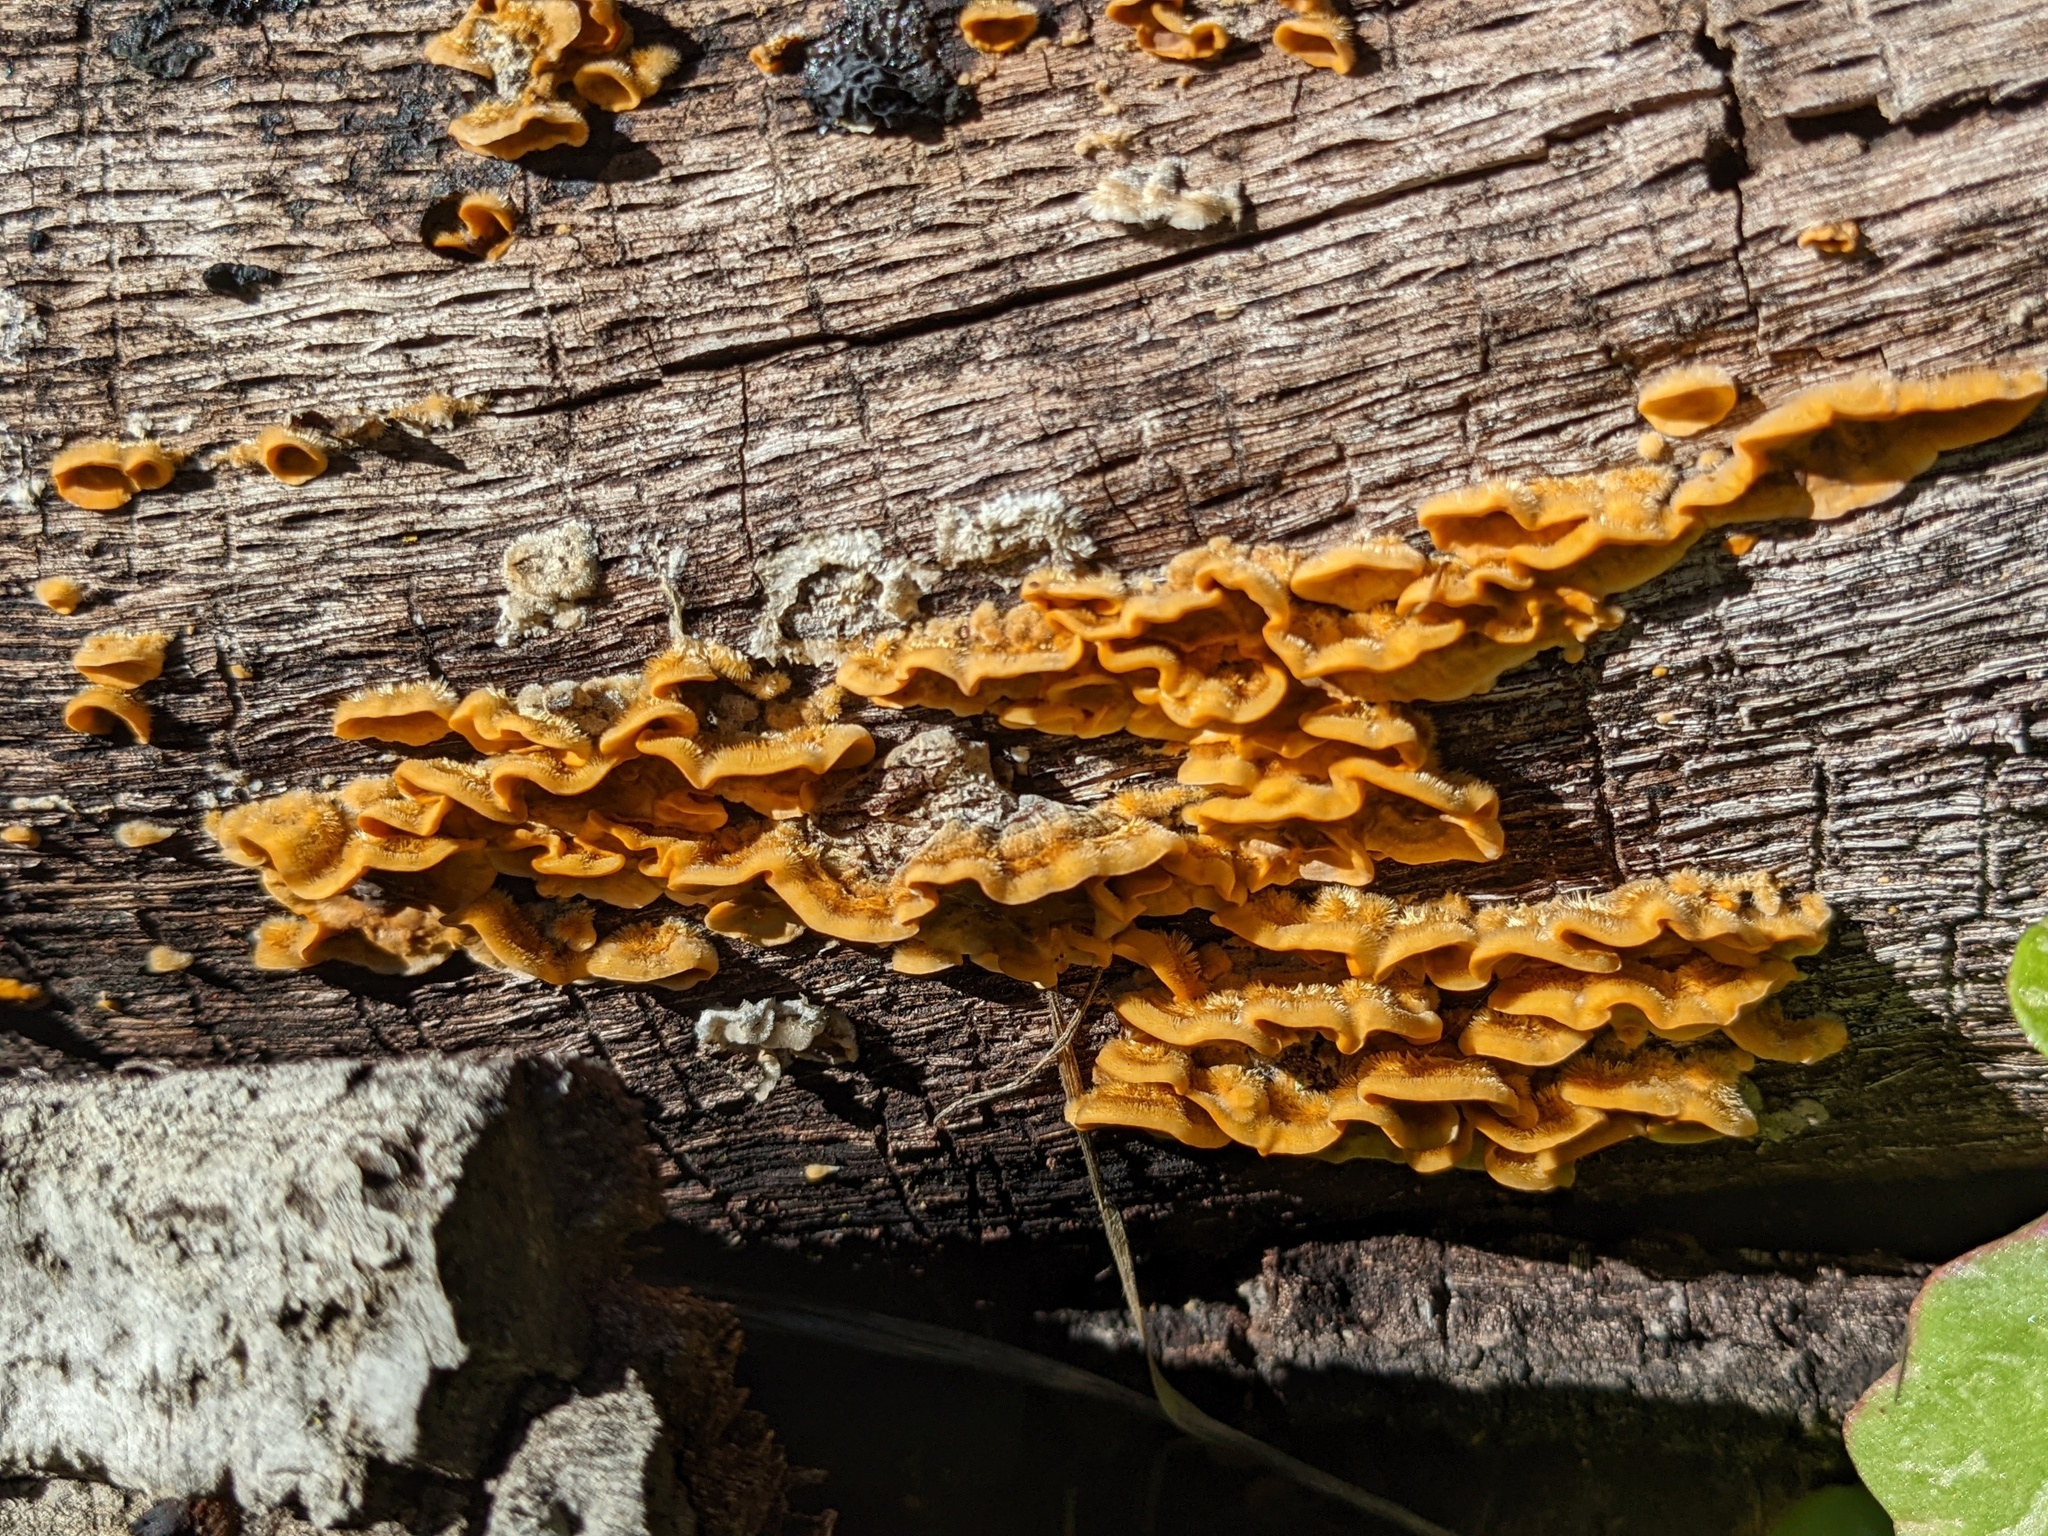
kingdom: Fungi
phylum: Basidiomycota
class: Agaricomycetes
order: Russulales
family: Stereaceae
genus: Stereum
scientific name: Stereum hirsutum
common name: Hairy curtain crust
